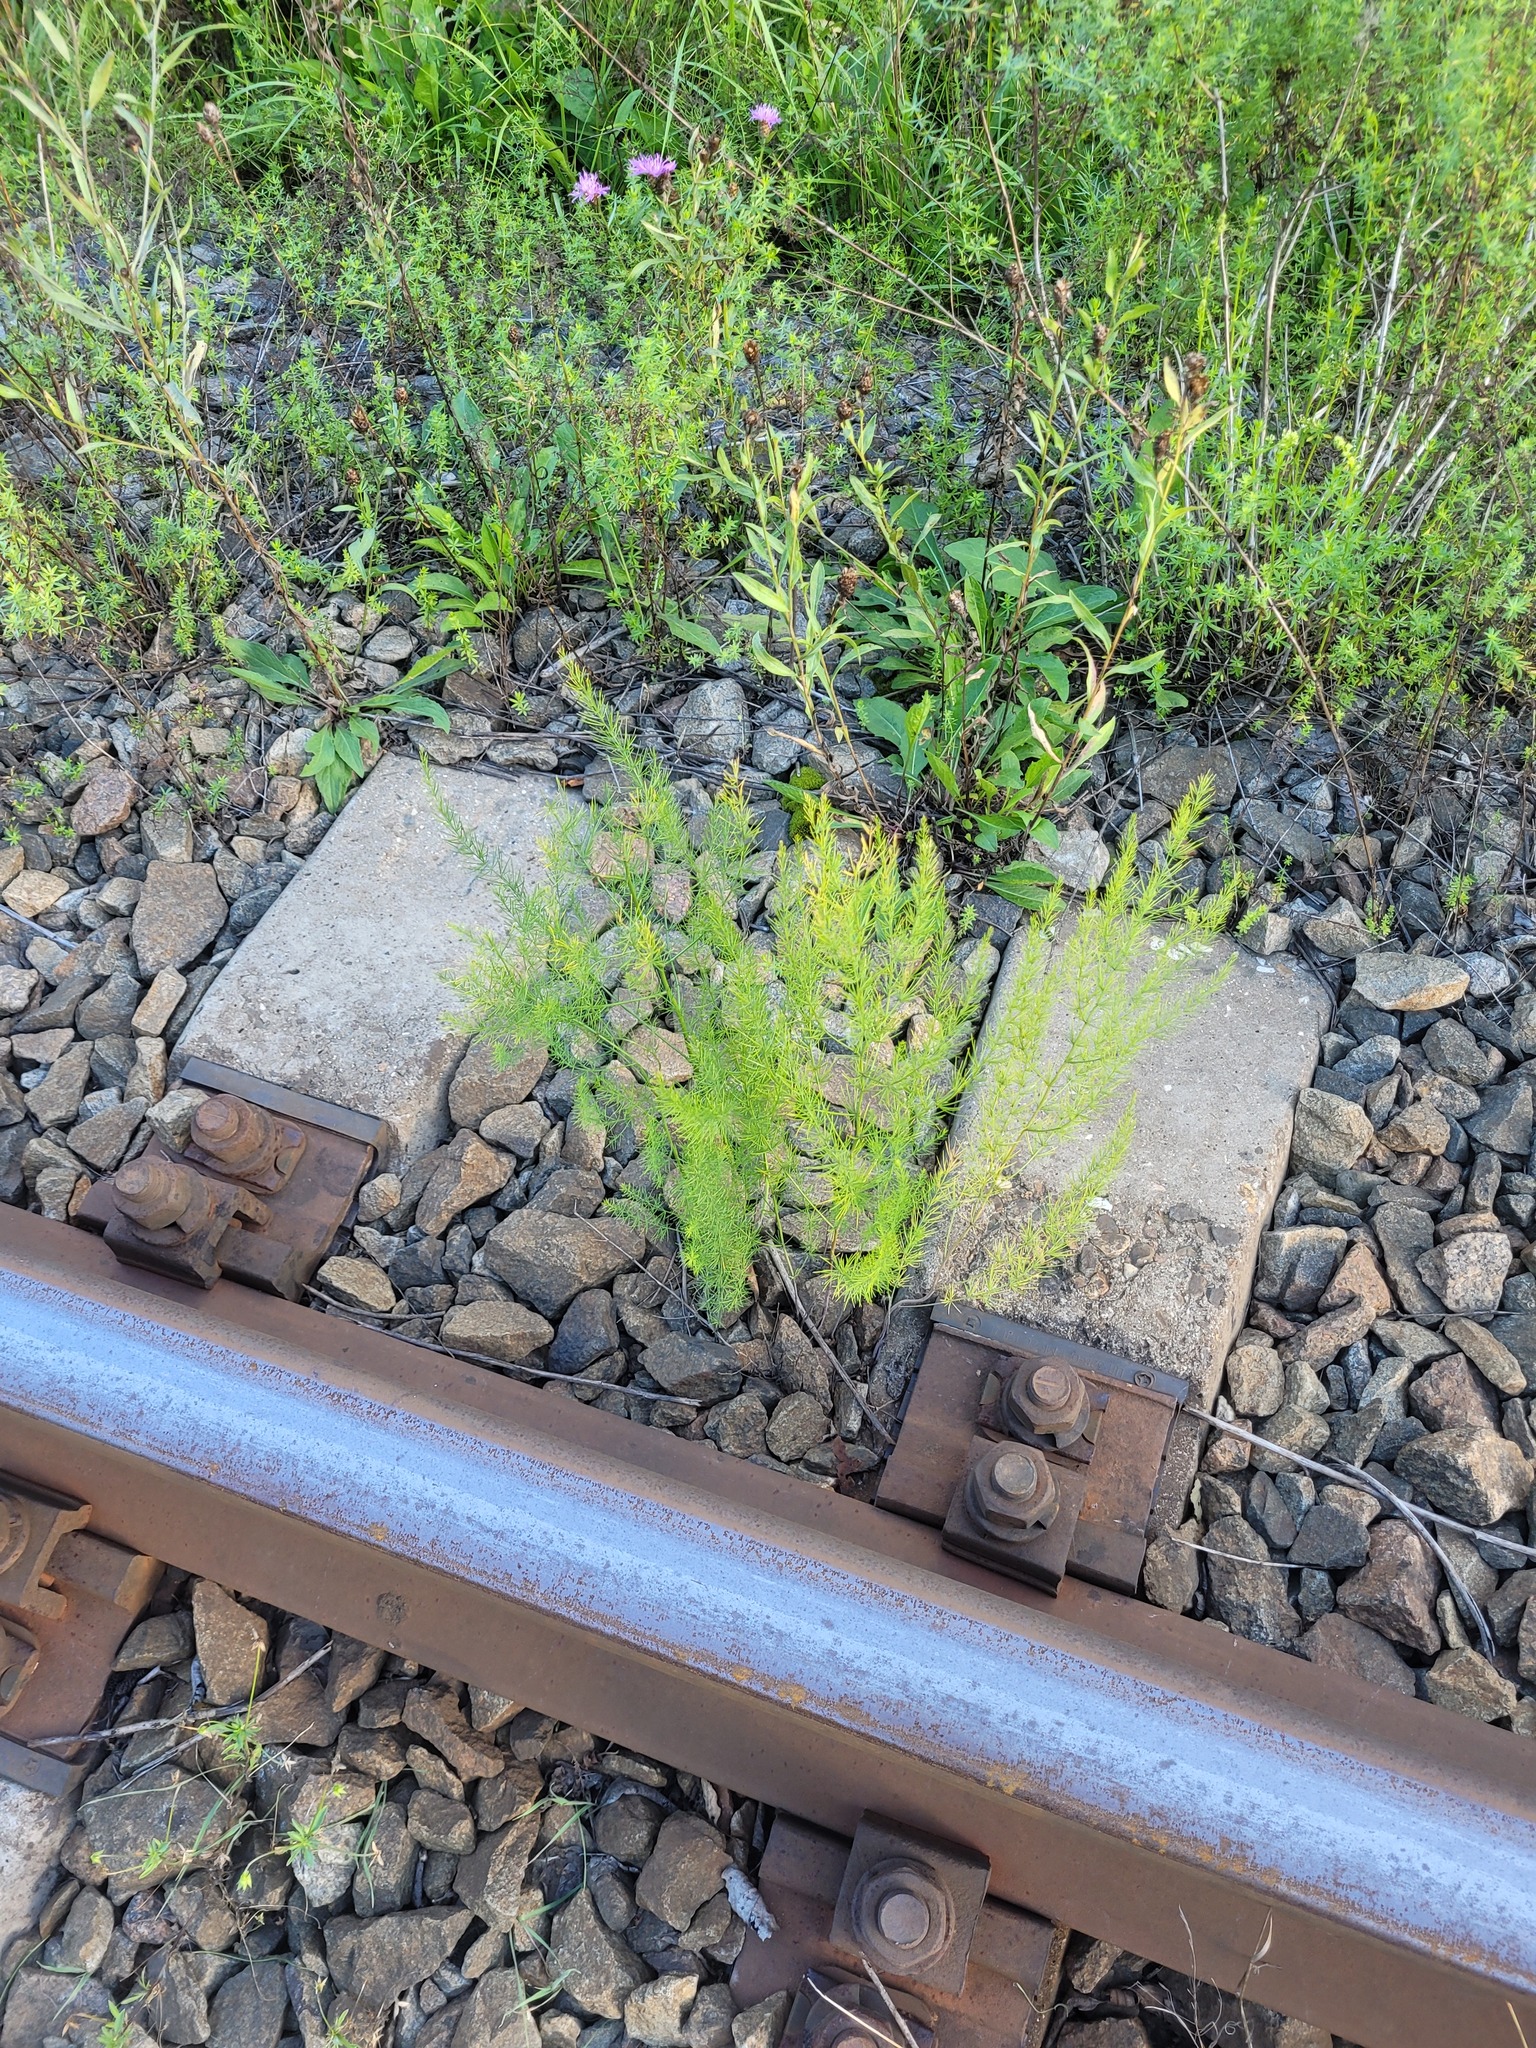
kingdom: Plantae
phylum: Tracheophyta
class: Liliopsida
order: Asparagales
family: Asparagaceae
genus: Asparagus
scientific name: Asparagus officinalis
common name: Garden asparagus
